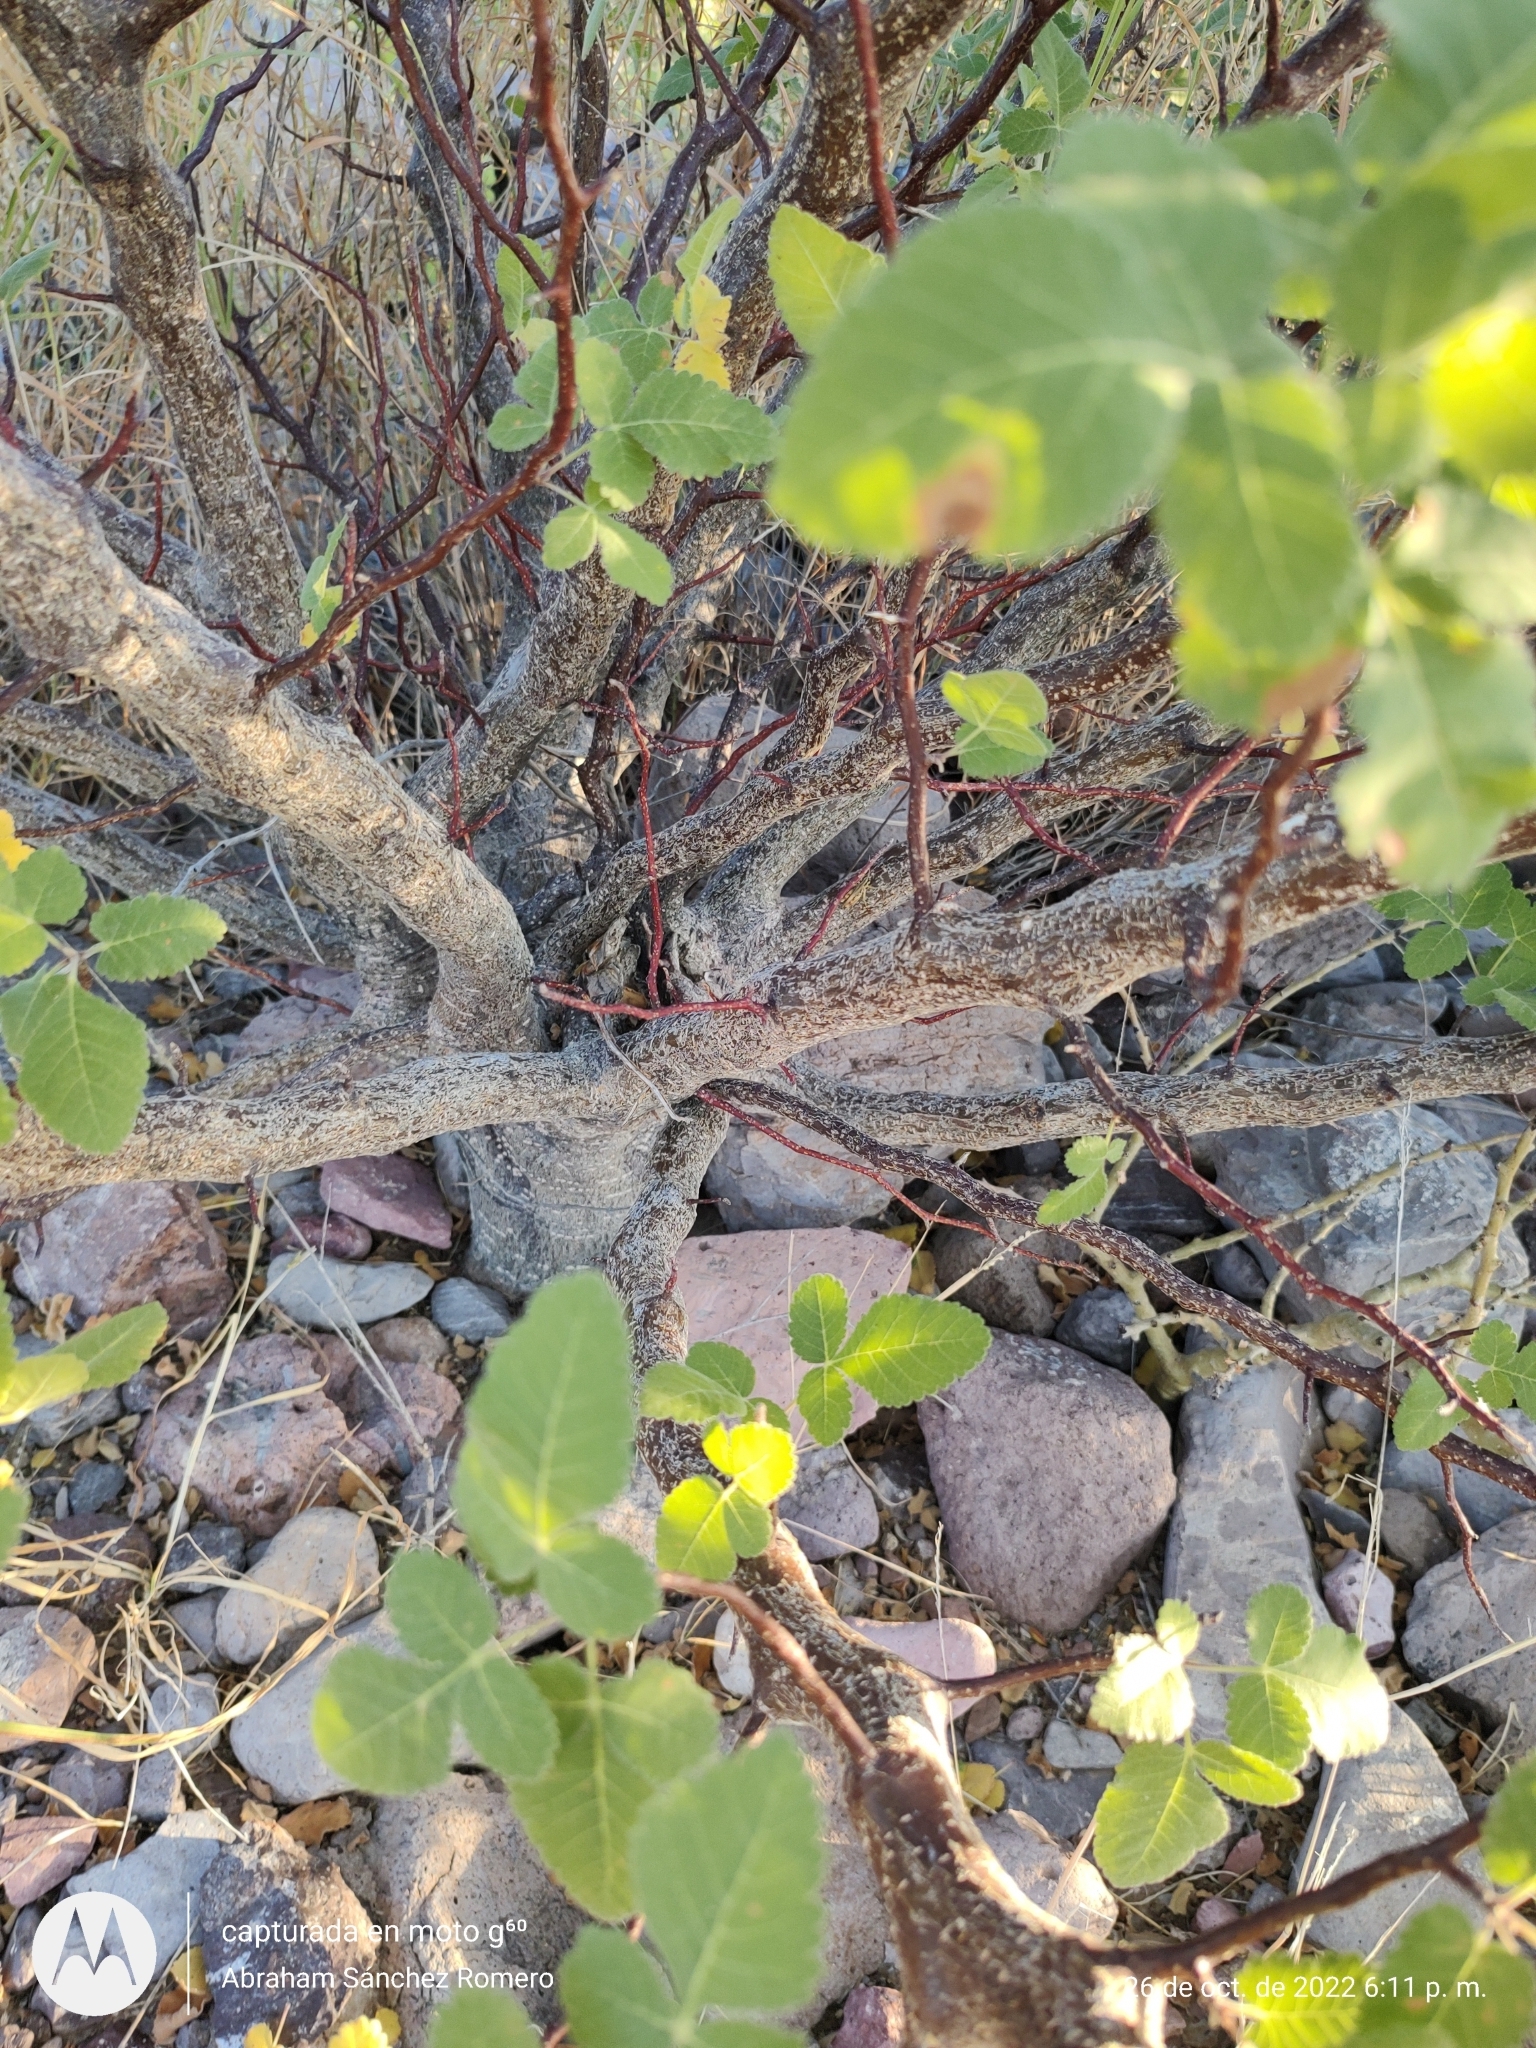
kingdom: Plantae
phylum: Tracheophyta
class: Magnoliopsida
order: Sapindales
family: Burseraceae
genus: Bursera
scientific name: Bursera hindsiana
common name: Red elephant tree
